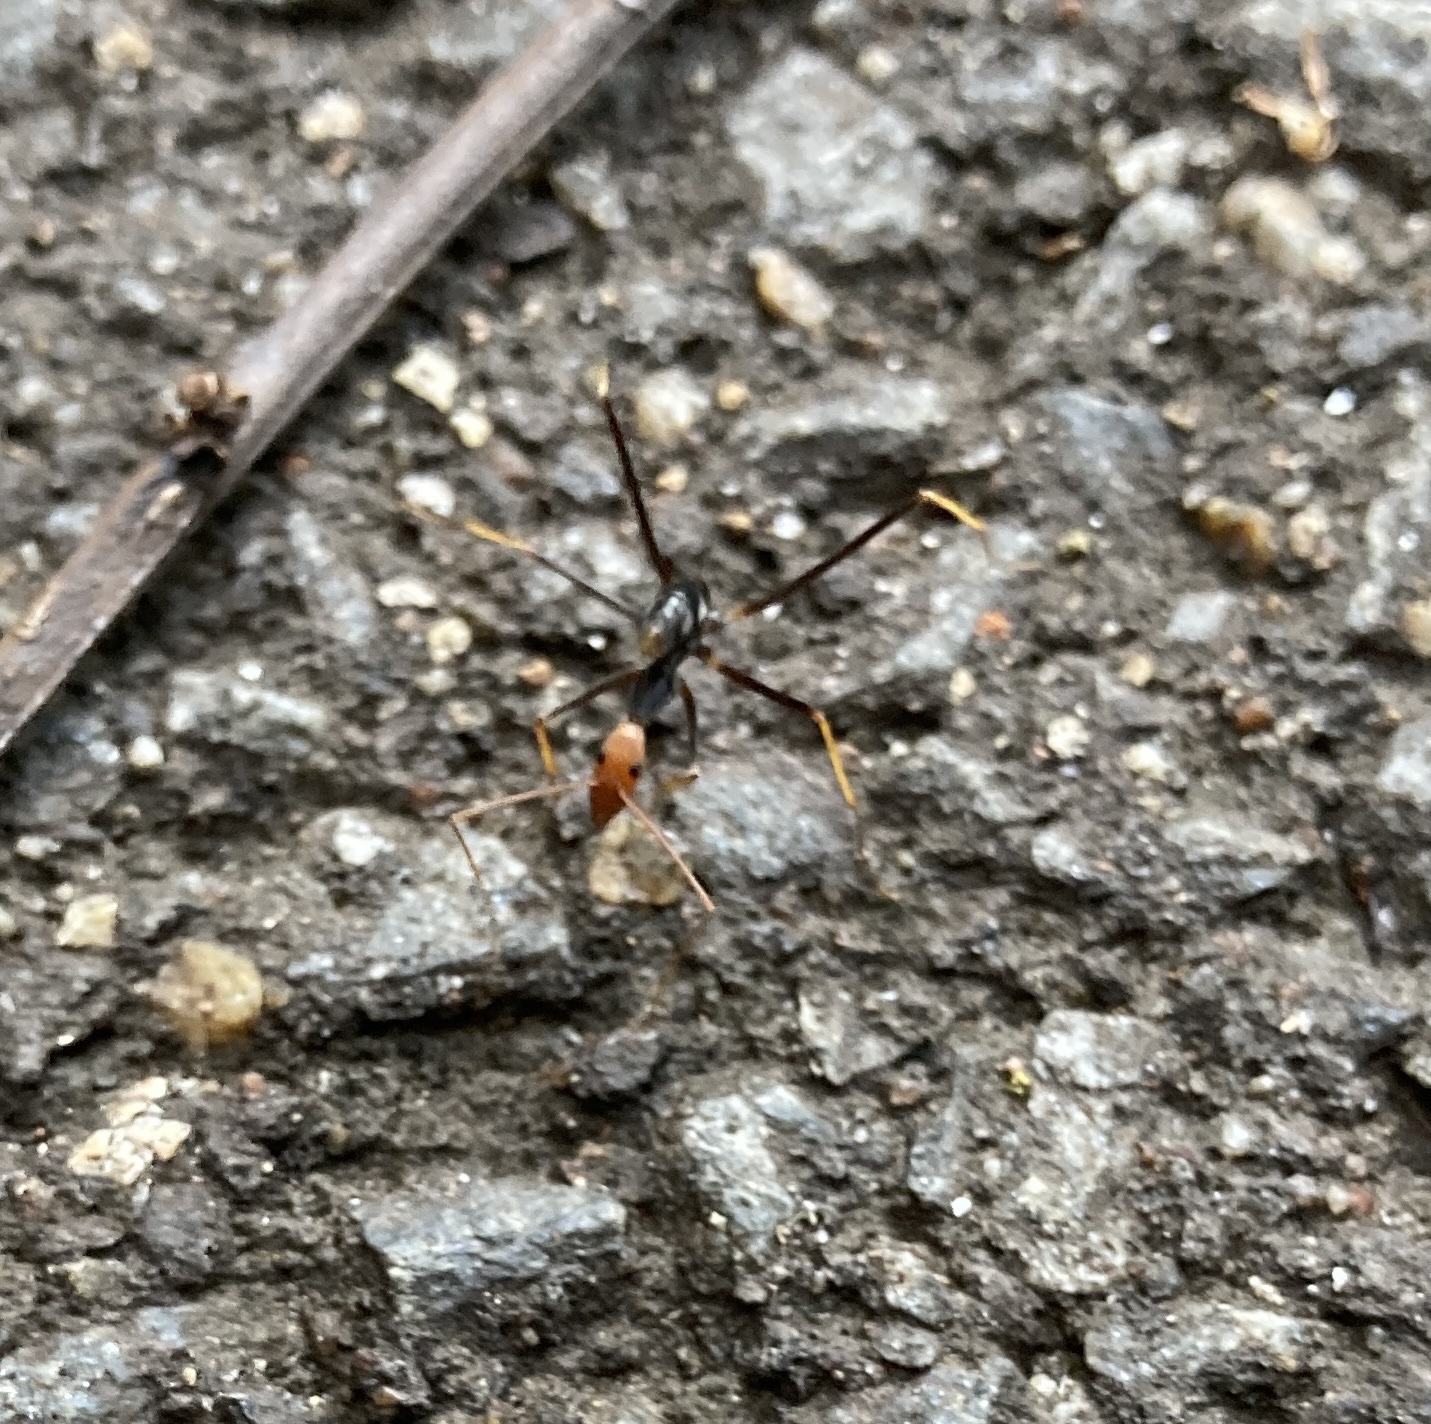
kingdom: Animalia
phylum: Arthropoda
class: Insecta
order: Hymenoptera
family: Formicidae
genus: Leptomyrmex
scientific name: Leptomyrmex ruficeps
